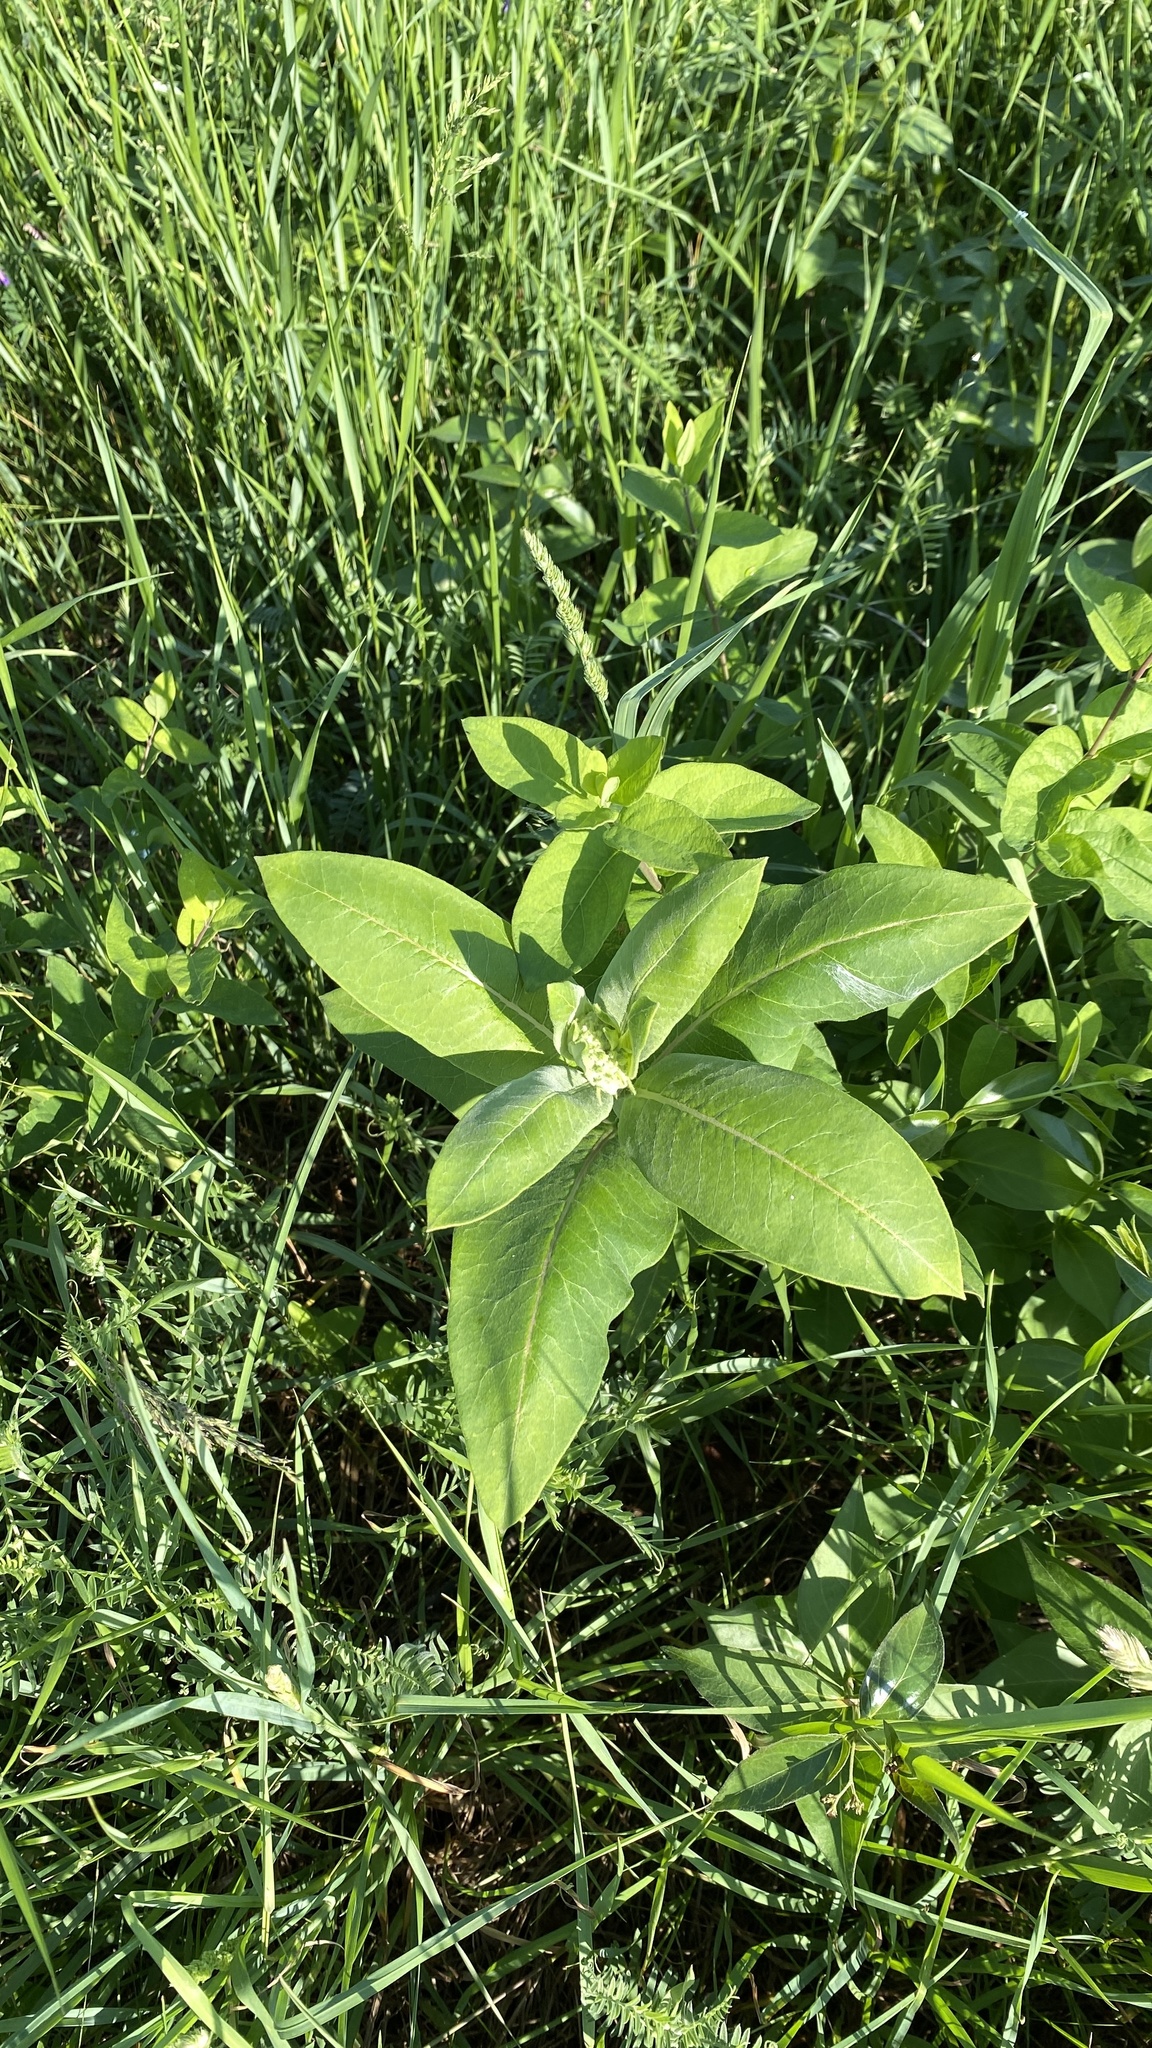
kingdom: Plantae
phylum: Tracheophyta
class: Magnoliopsida
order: Gentianales
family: Apocynaceae
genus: Asclepias
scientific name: Asclepias syriaca
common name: Common milkweed
